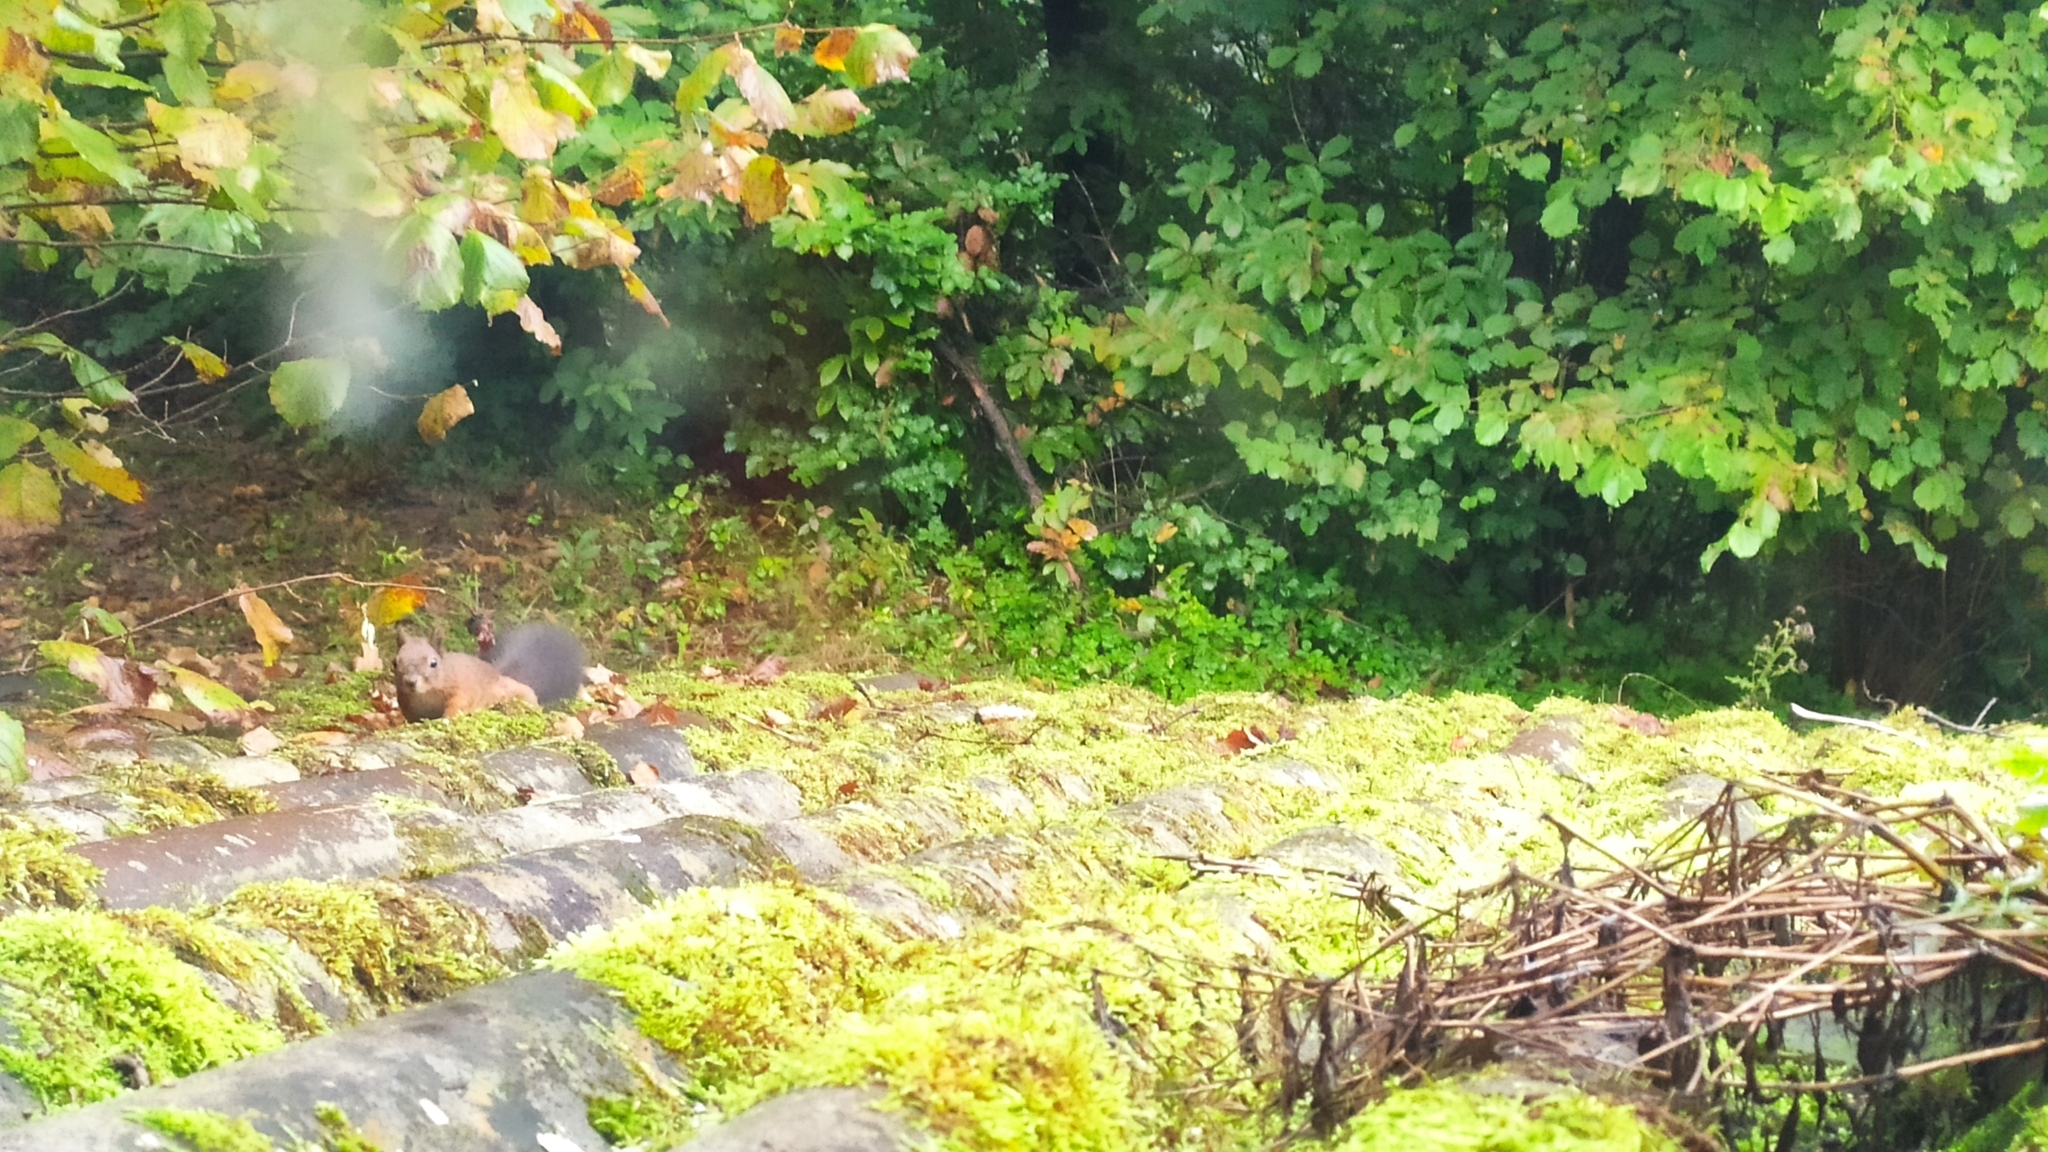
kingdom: Animalia
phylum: Chordata
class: Mammalia
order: Rodentia
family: Sciuridae
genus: Sciurus
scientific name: Sciurus vulgaris
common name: Eurasian red squirrel
